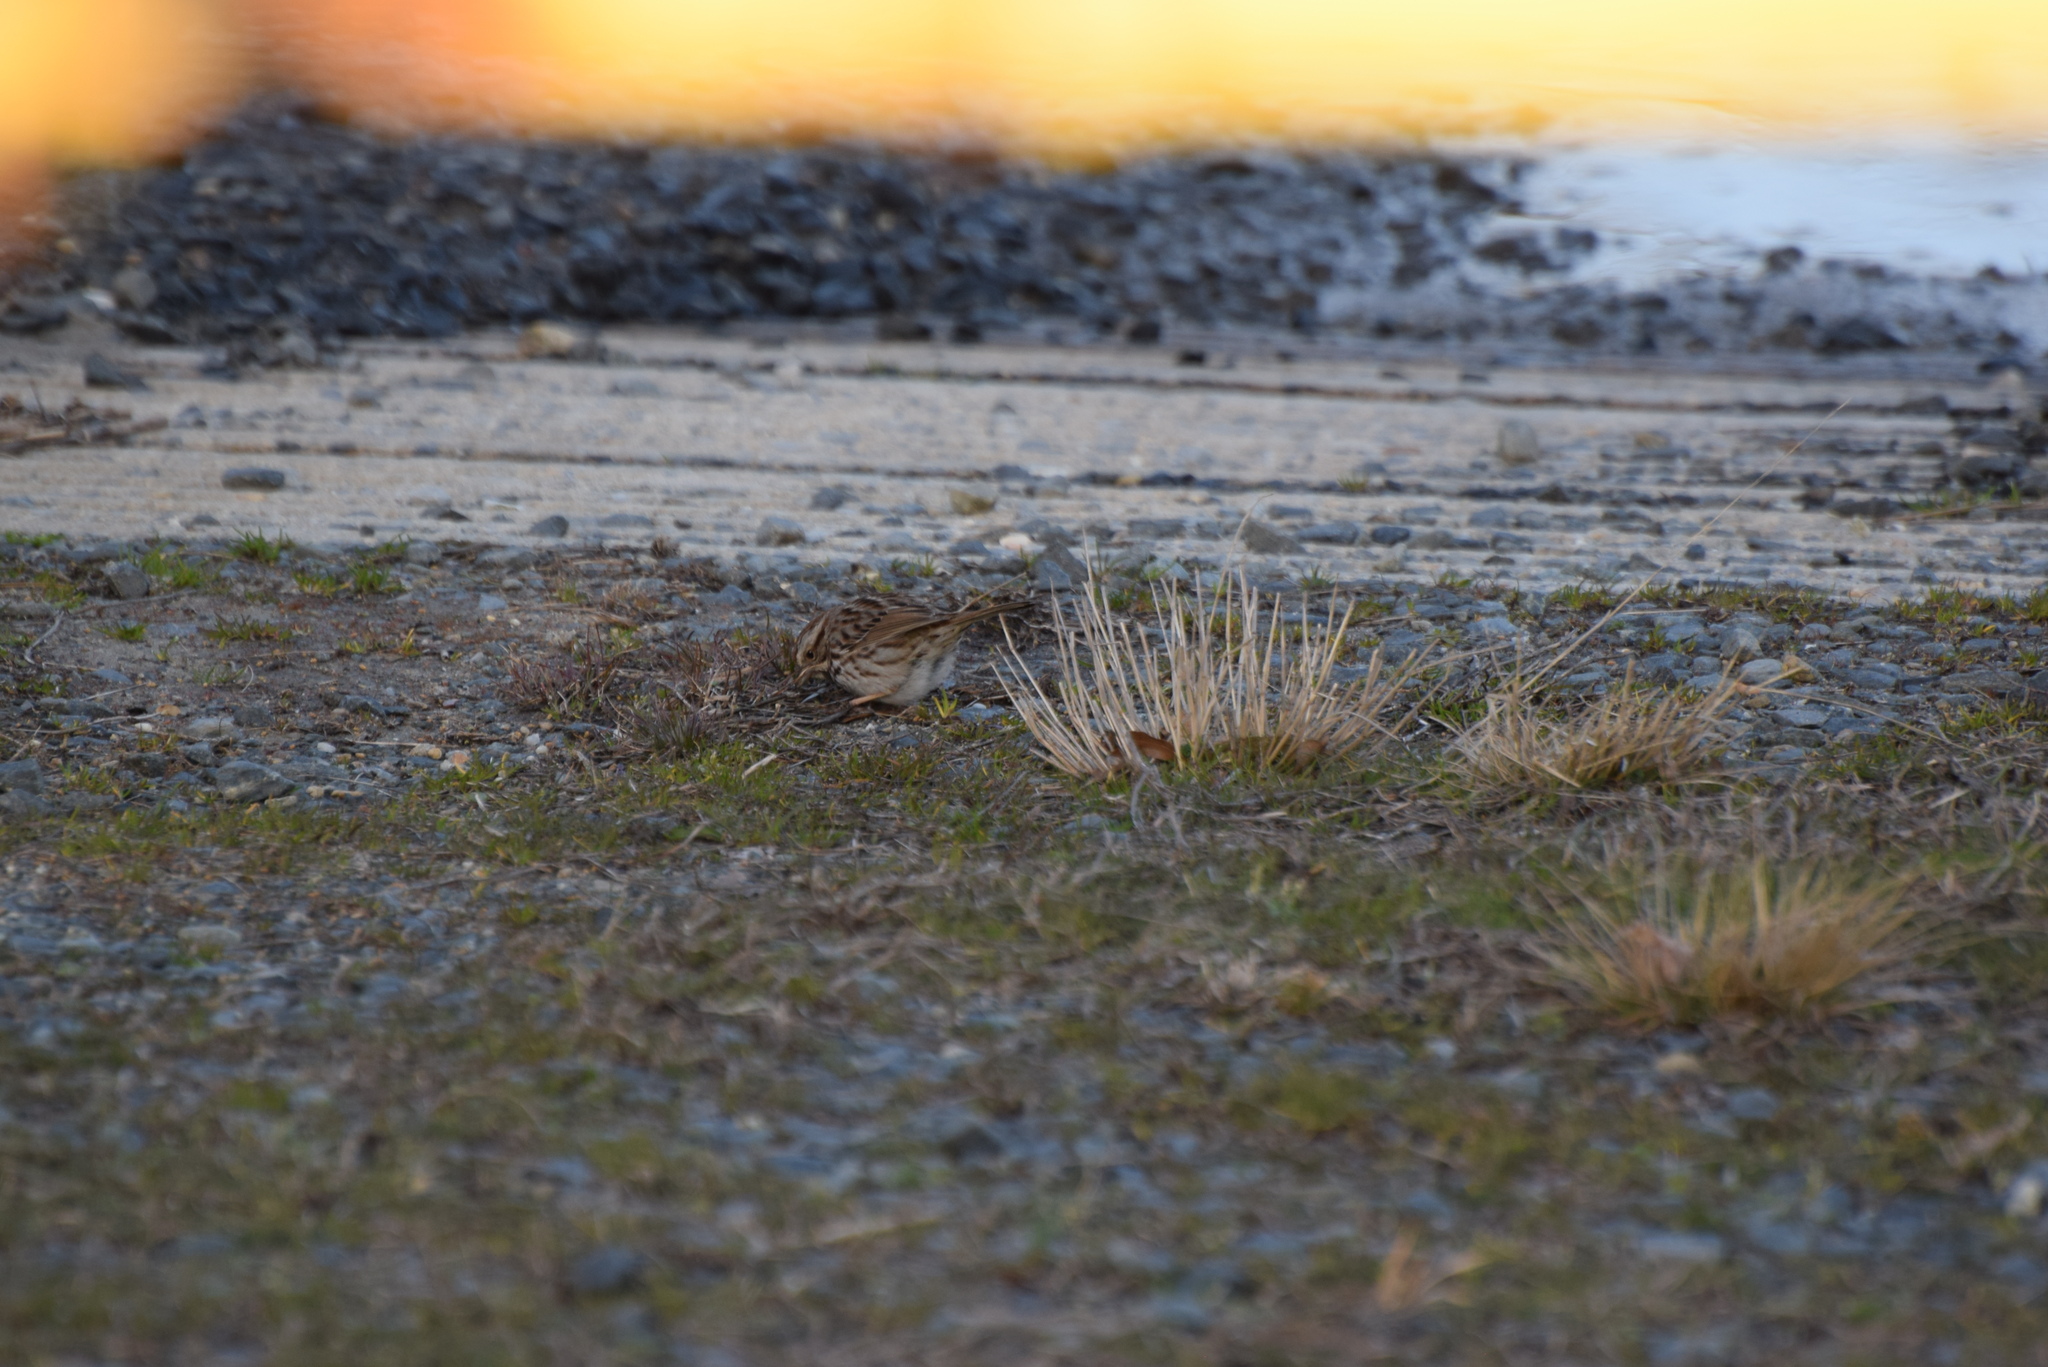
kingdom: Animalia
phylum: Chordata
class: Aves
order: Passeriformes
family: Passerellidae
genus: Melospiza
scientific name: Melospiza melodia
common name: Song sparrow
